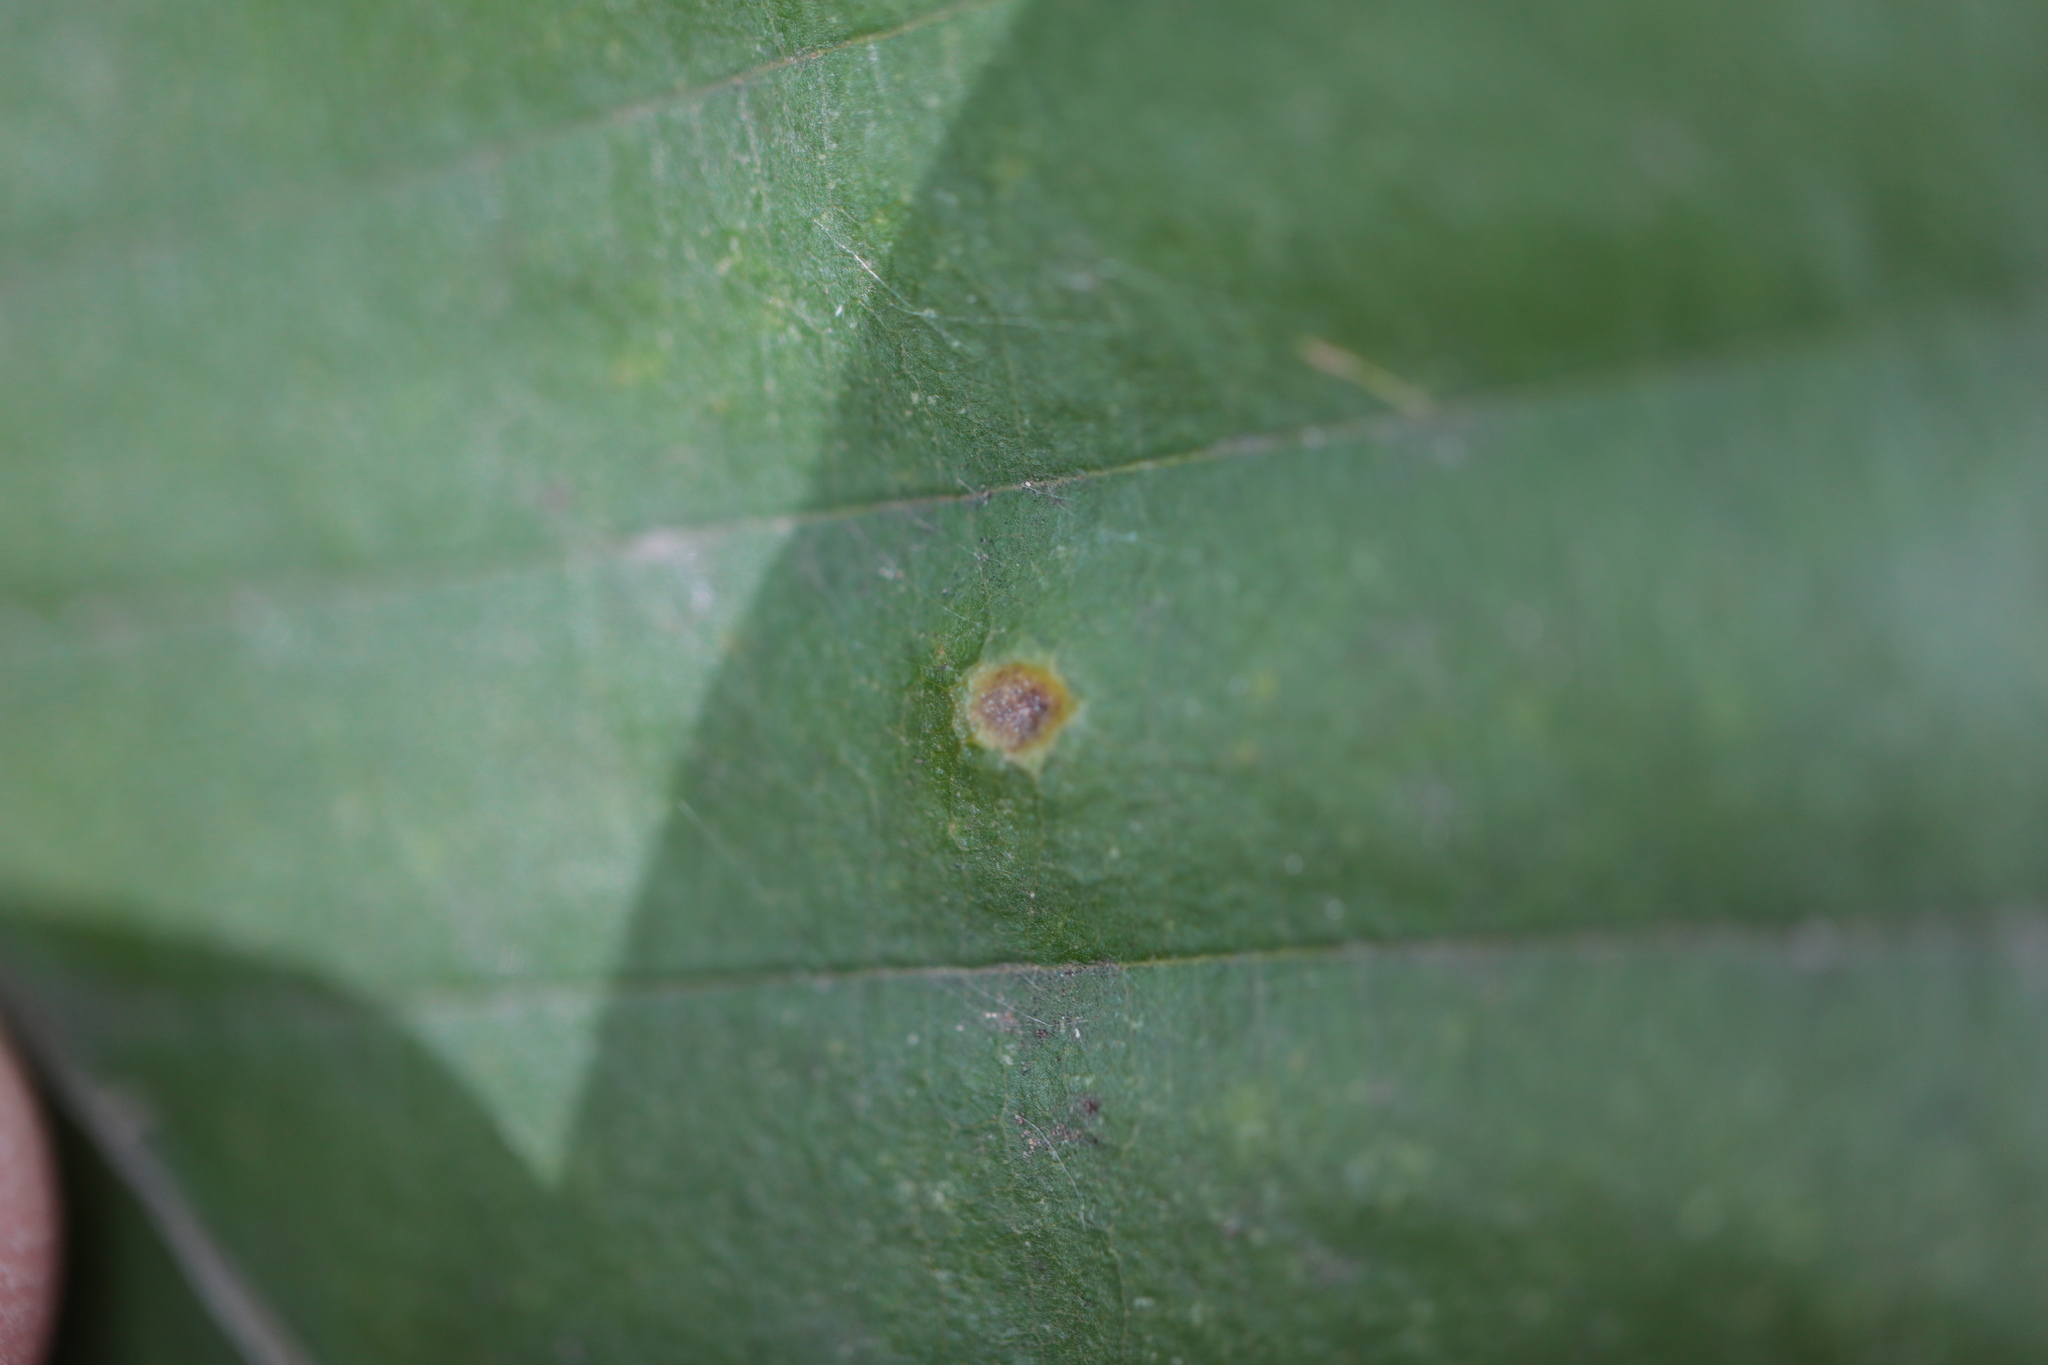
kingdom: Animalia
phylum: Arthropoda
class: Arachnida
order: Trombidiformes
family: Eriophyidae
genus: Acalitus
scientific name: Acalitus
